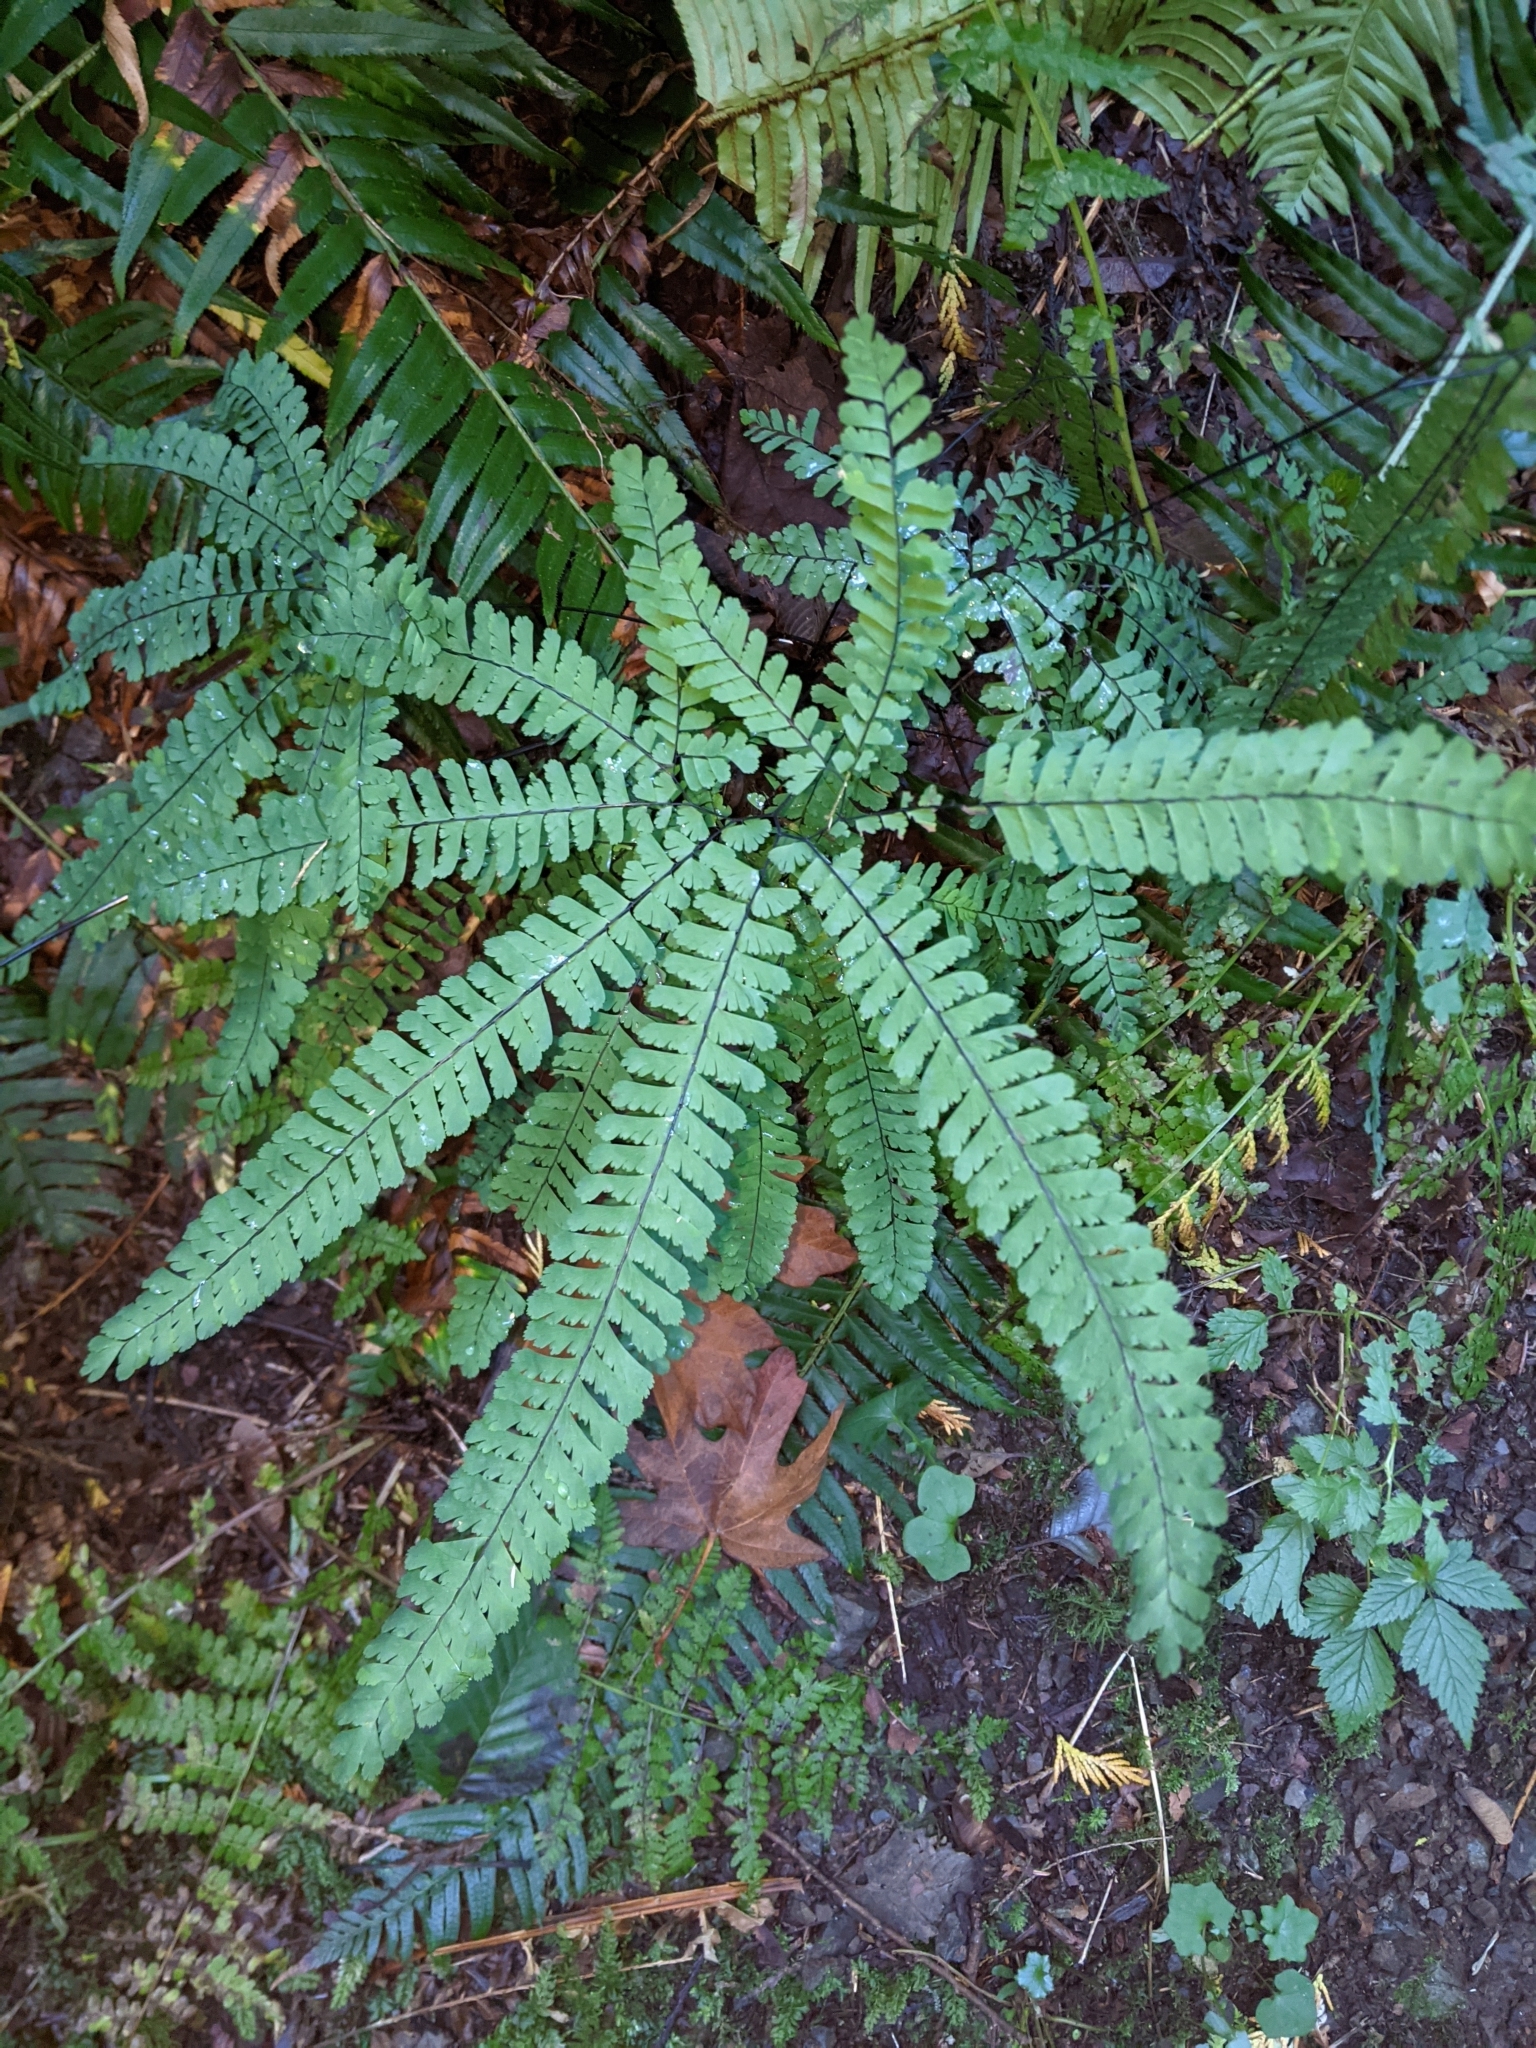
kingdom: Plantae
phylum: Tracheophyta
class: Polypodiopsida
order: Polypodiales
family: Pteridaceae
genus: Adiantum
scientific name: Adiantum aleuticum
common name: Aleutian maidenhair fern
